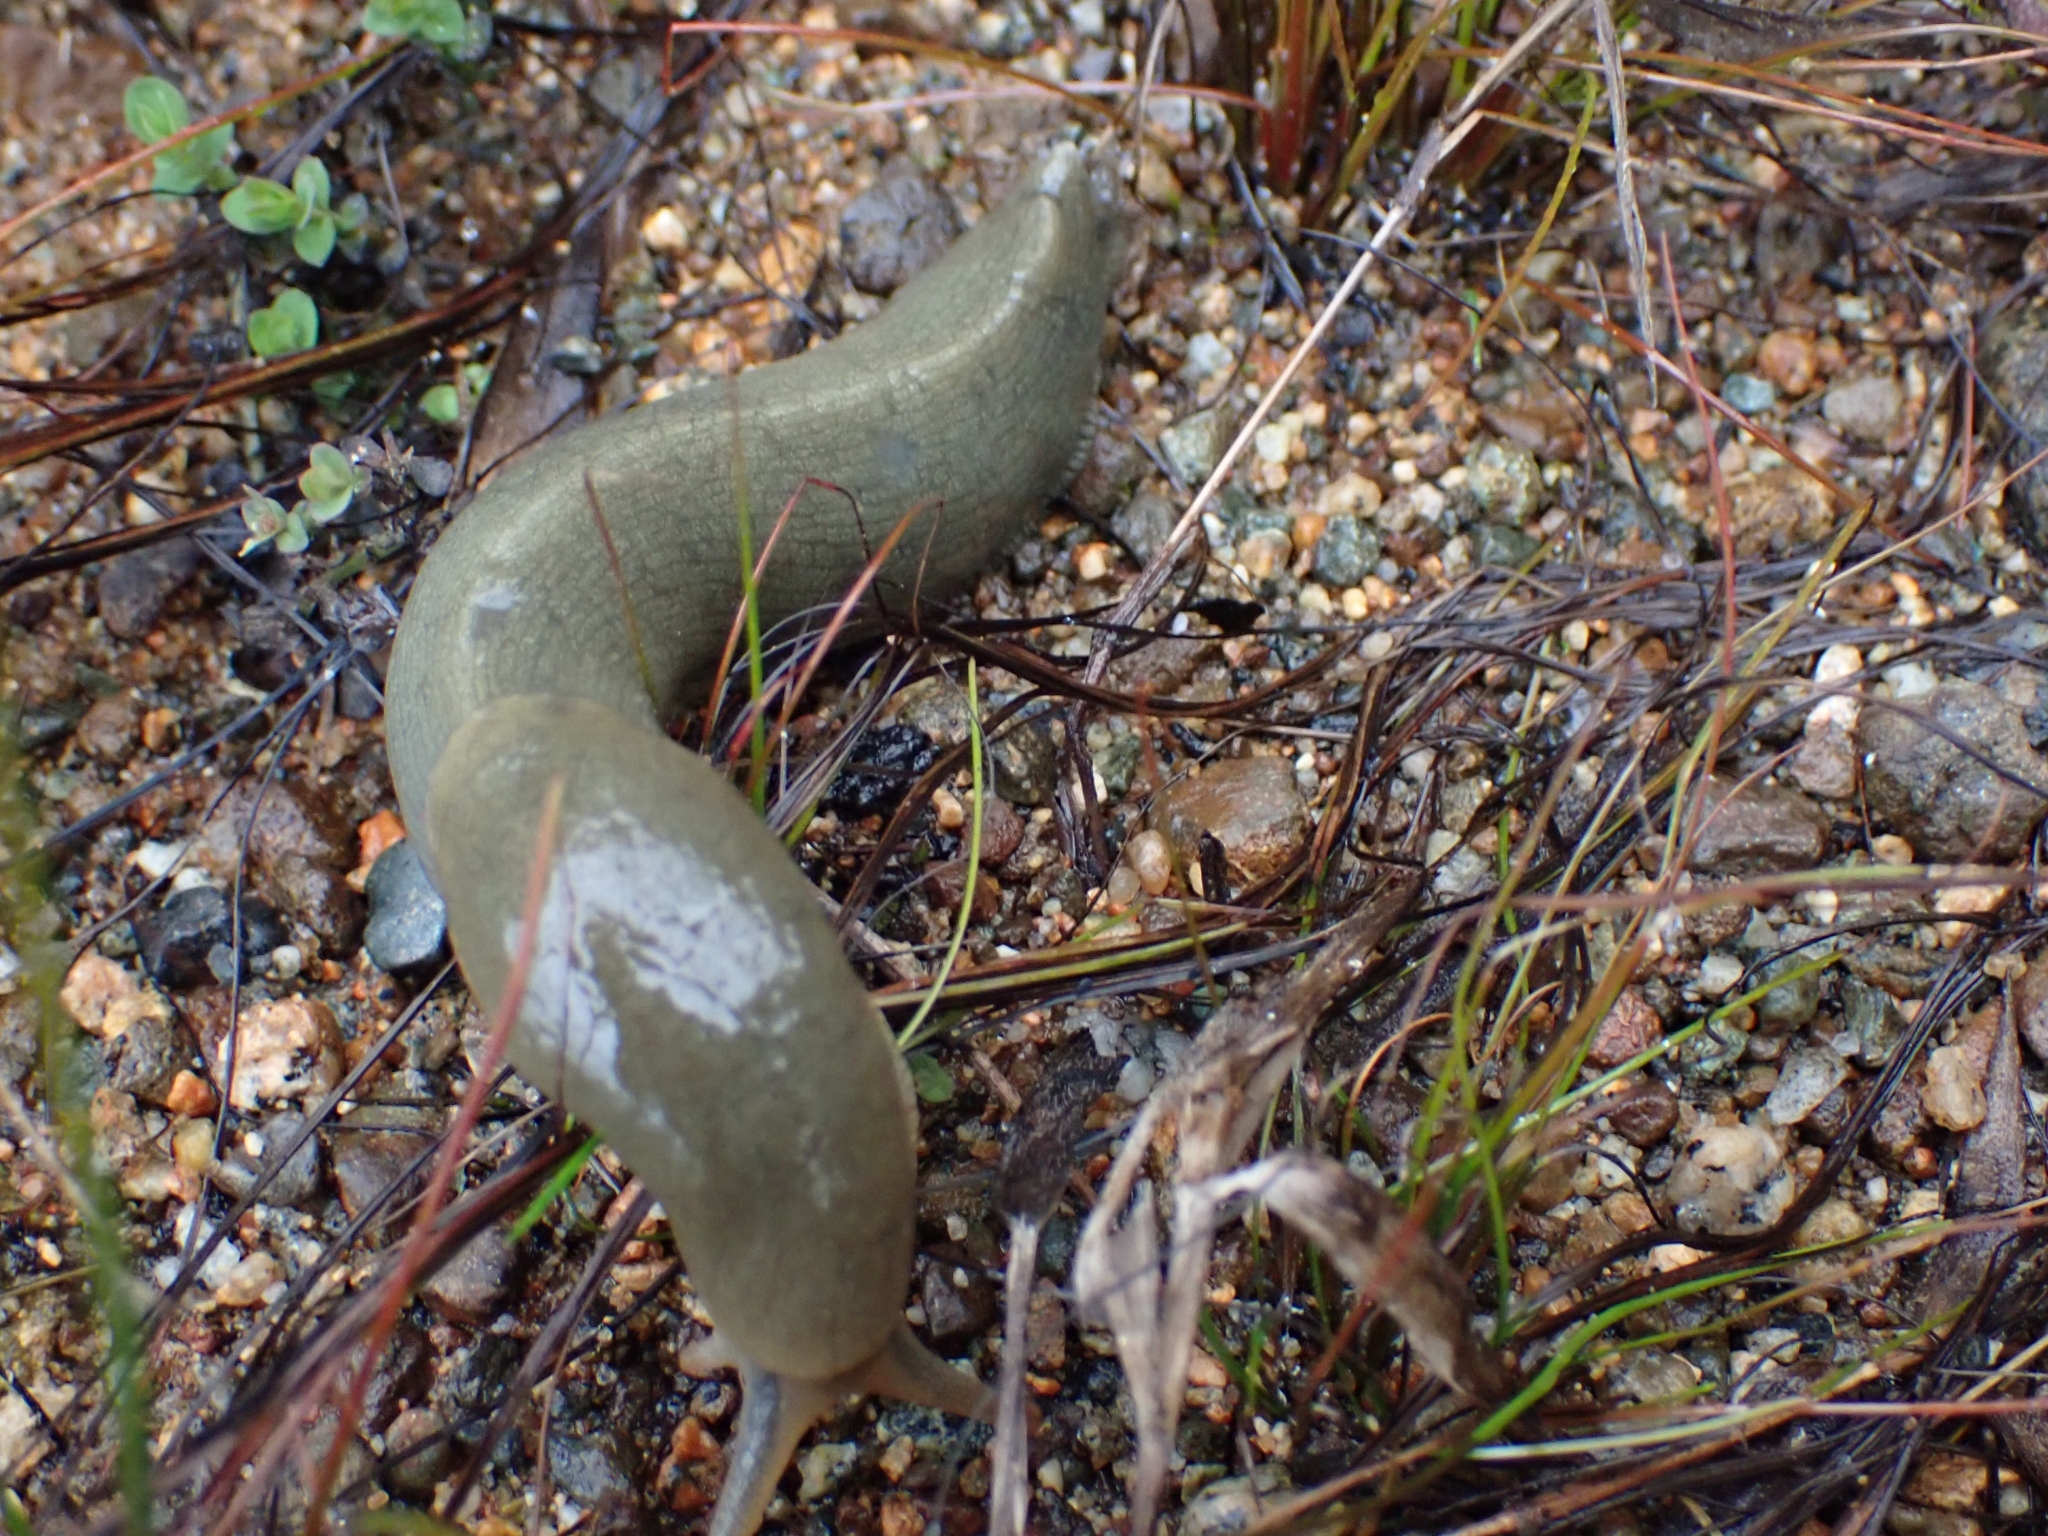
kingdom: Animalia
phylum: Mollusca
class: Gastropoda
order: Stylommatophora
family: Ariolimacidae
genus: Ariolimax
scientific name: Ariolimax columbianus
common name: Pacific banana slug
